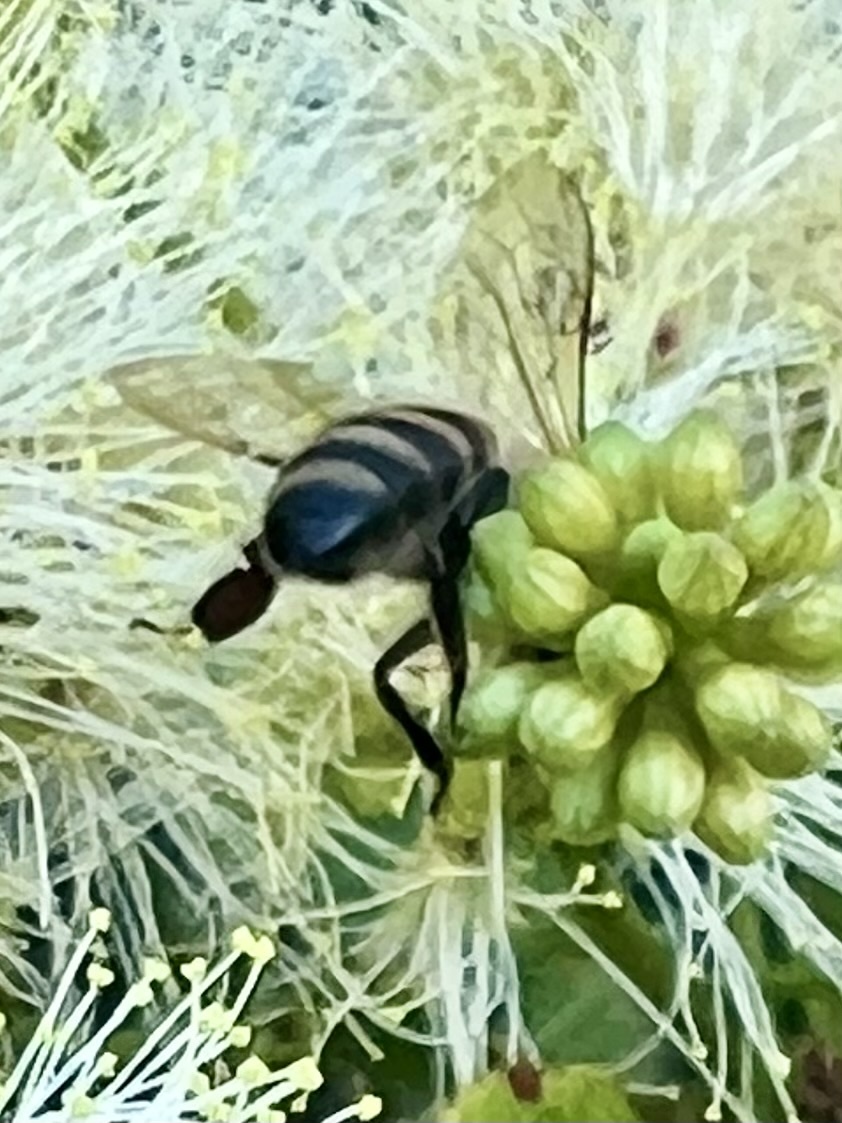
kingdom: Animalia
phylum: Arthropoda
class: Insecta
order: Hymenoptera
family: Apidae
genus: Apis
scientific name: Apis mellifera
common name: Honey bee
